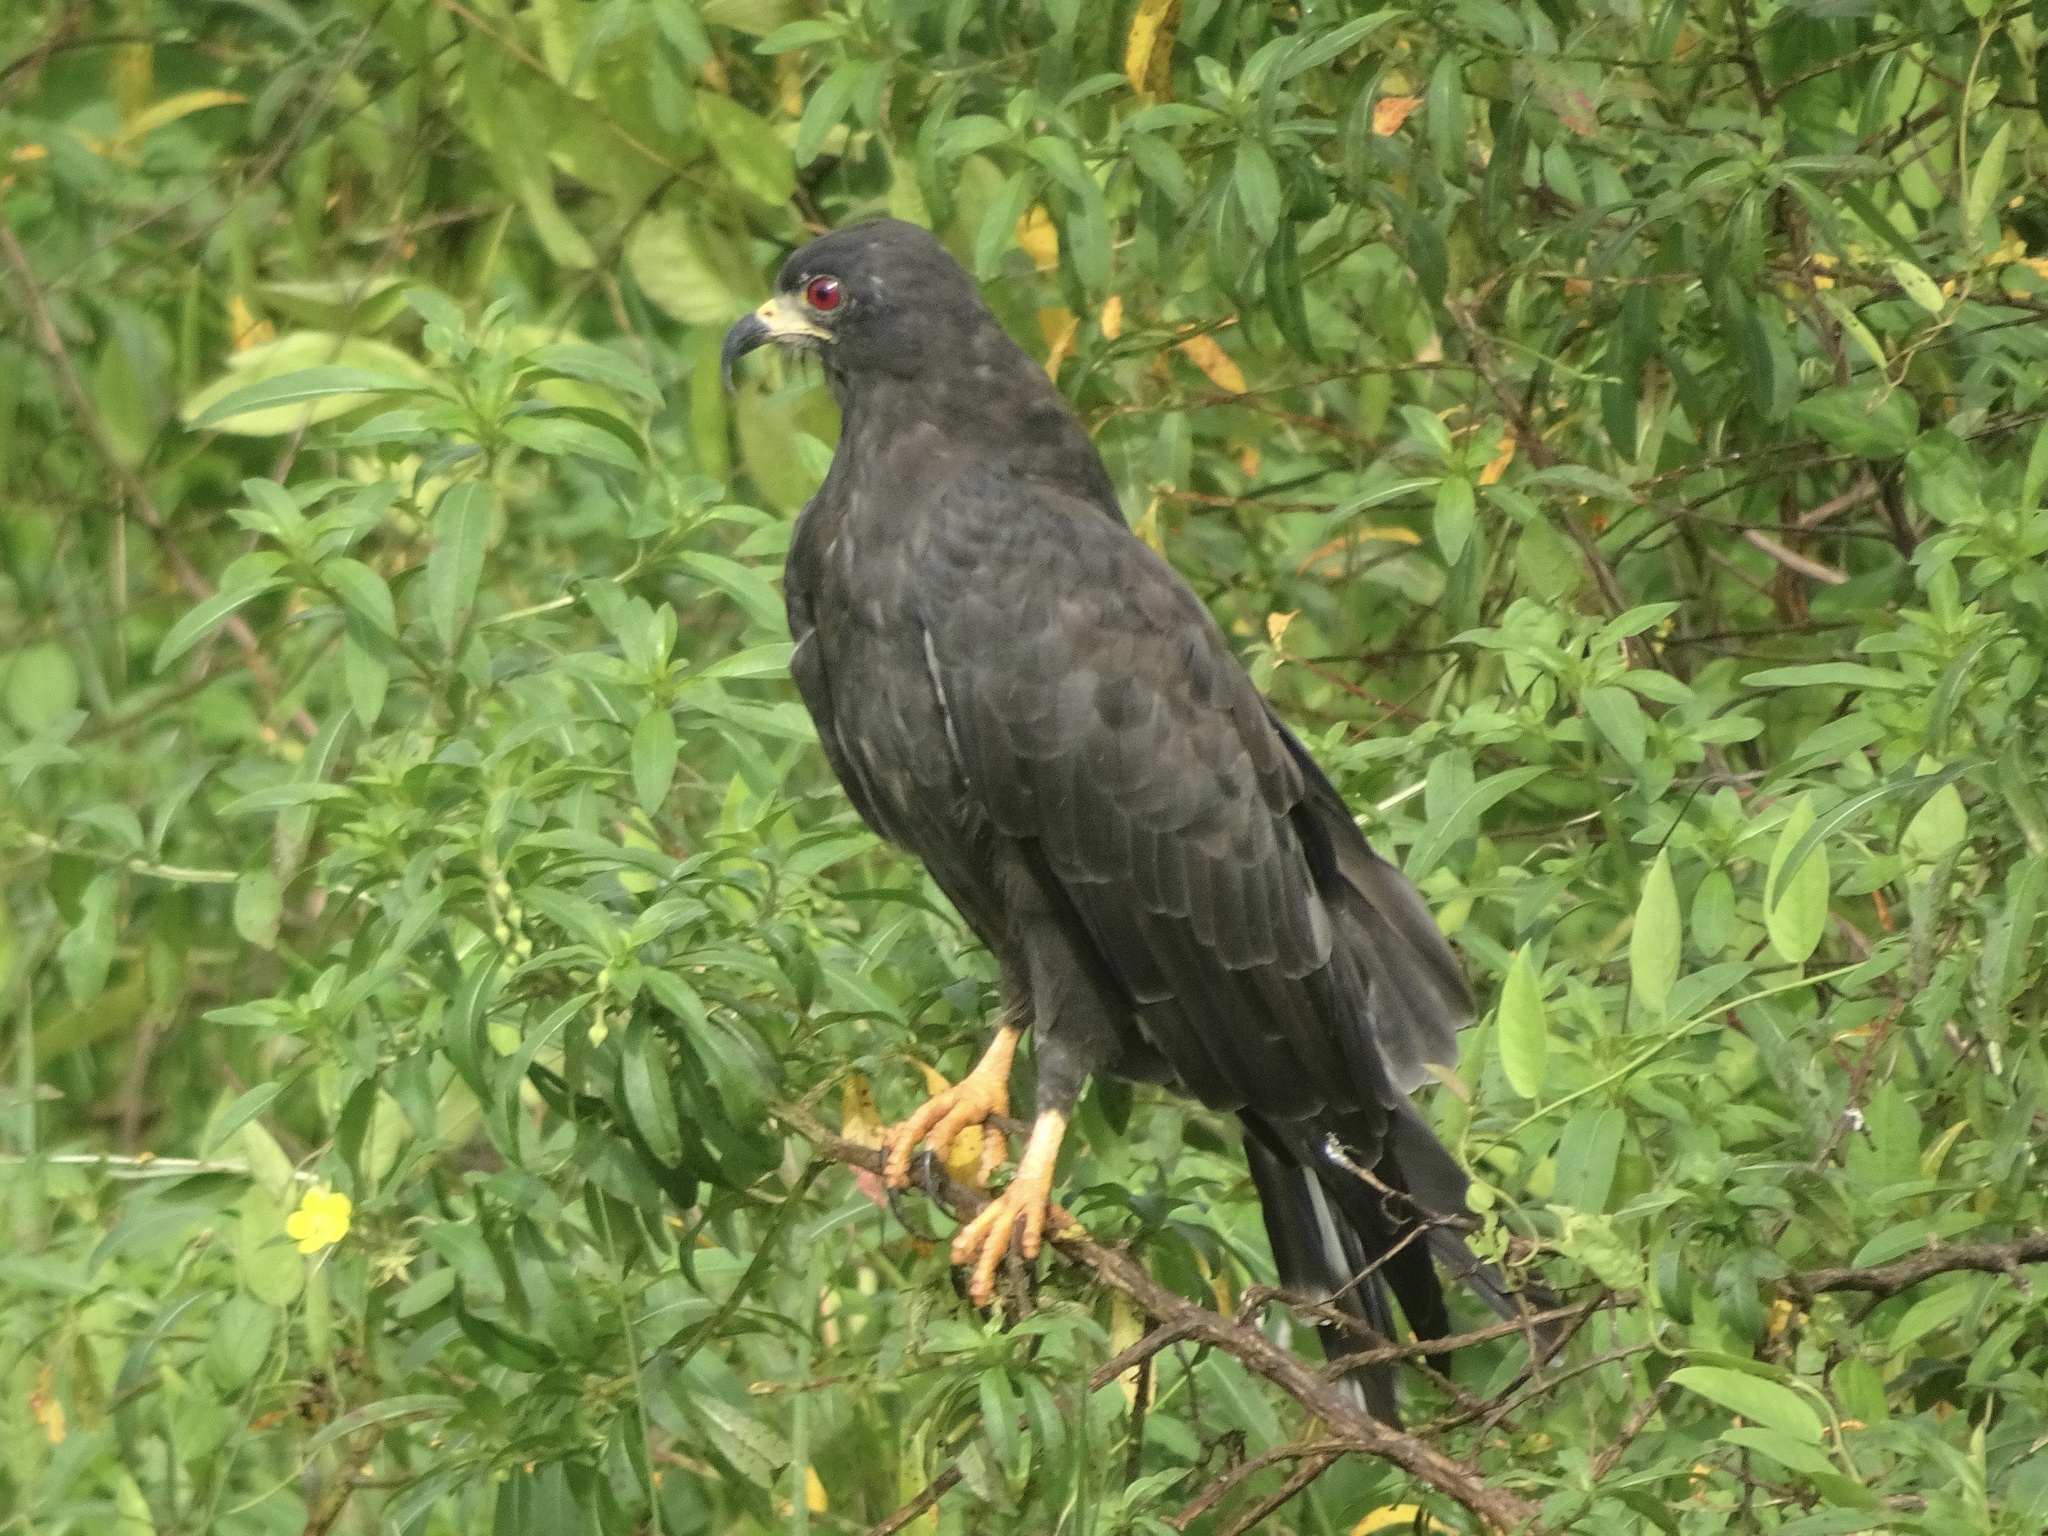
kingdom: Animalia
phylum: Chordata
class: Aves
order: Accipitriformes
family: Accipitridae
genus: Rostrhamus
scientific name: Rostrhamus sociabilis
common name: Snail kite
